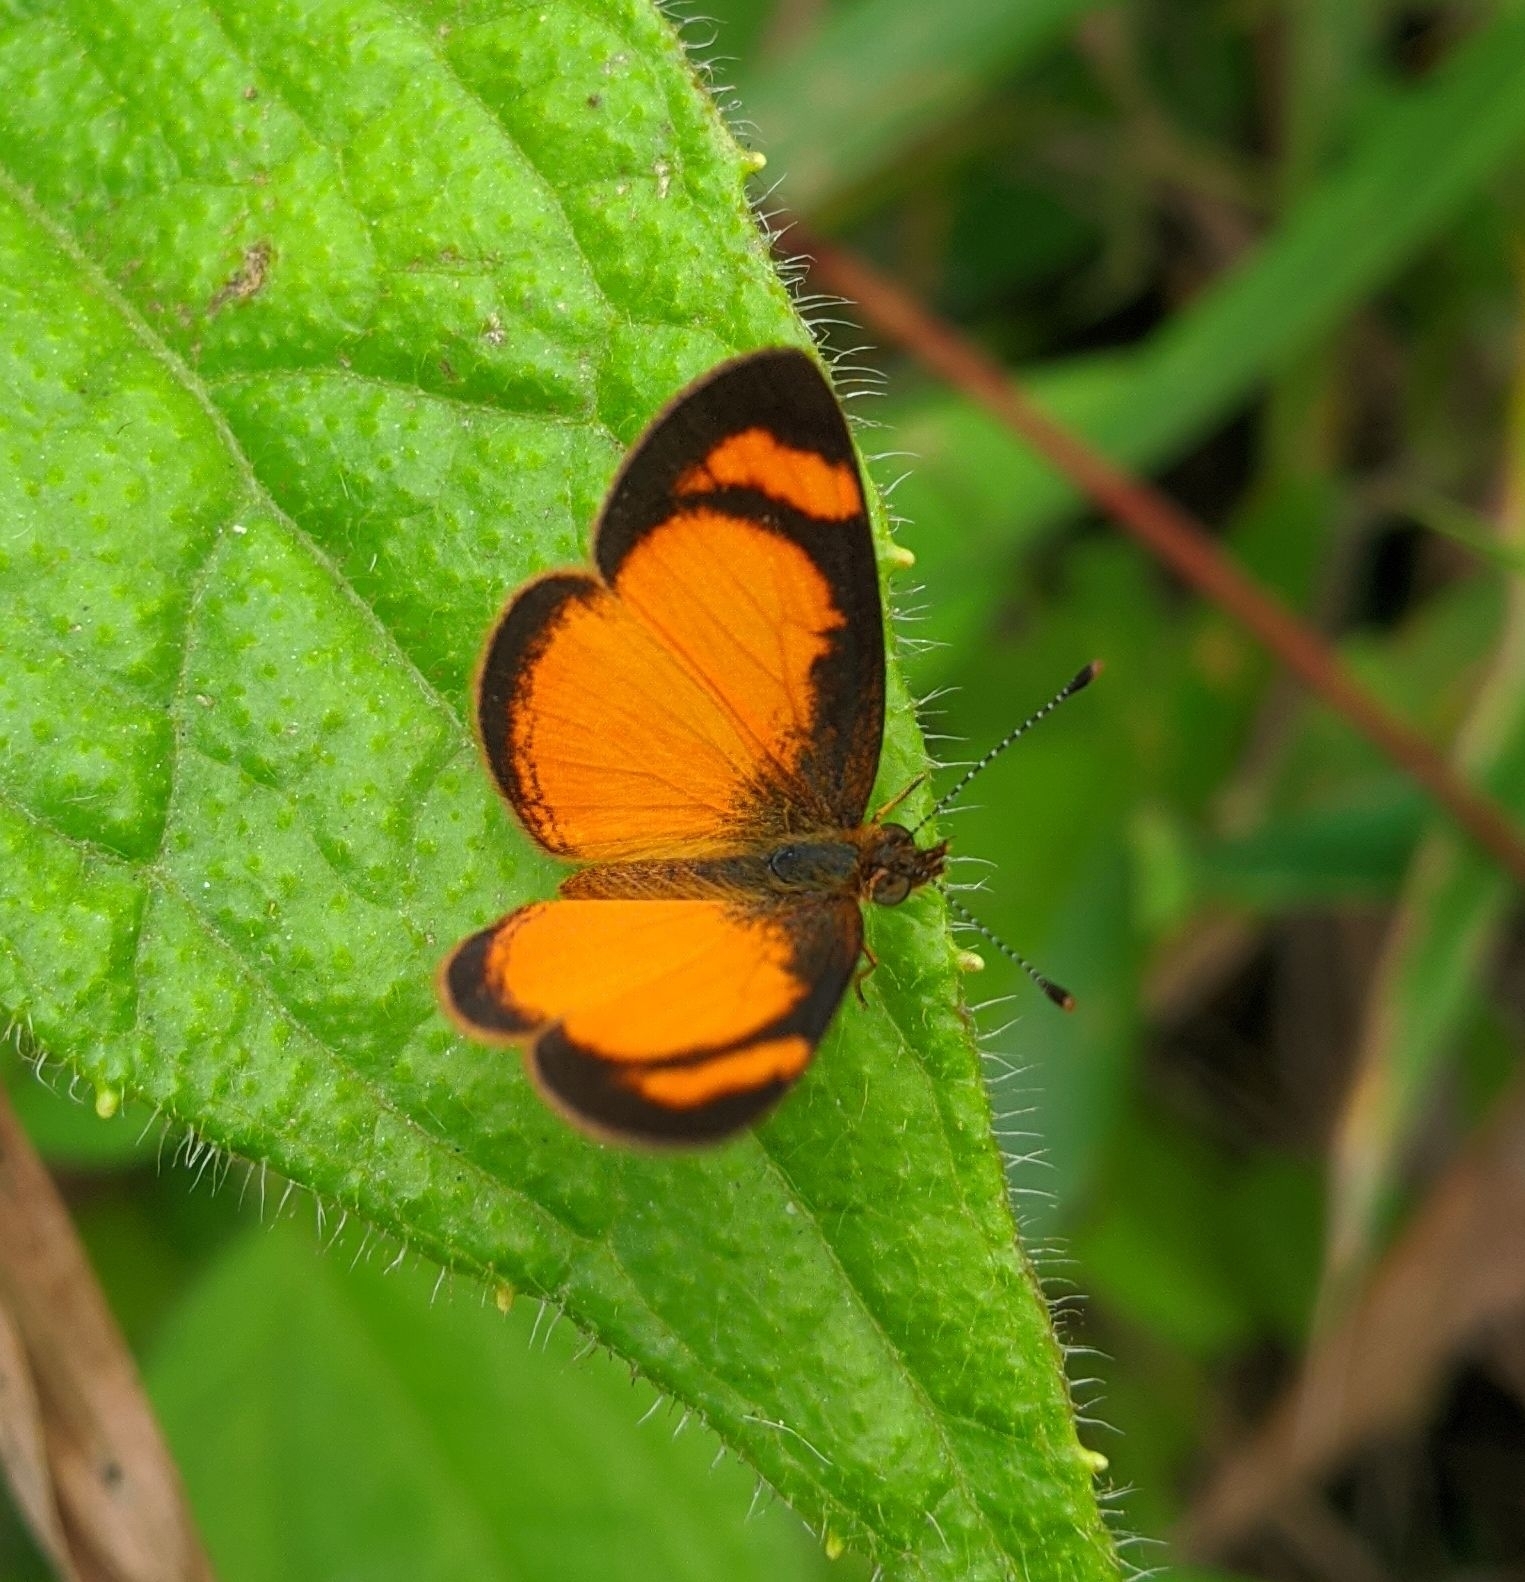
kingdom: Animalia
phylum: Arthropoda
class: Insecta
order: Lepidoptera
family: Nymphalidae
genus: Tegosa
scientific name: Tegosa anieta
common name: Black-bordered crescent
